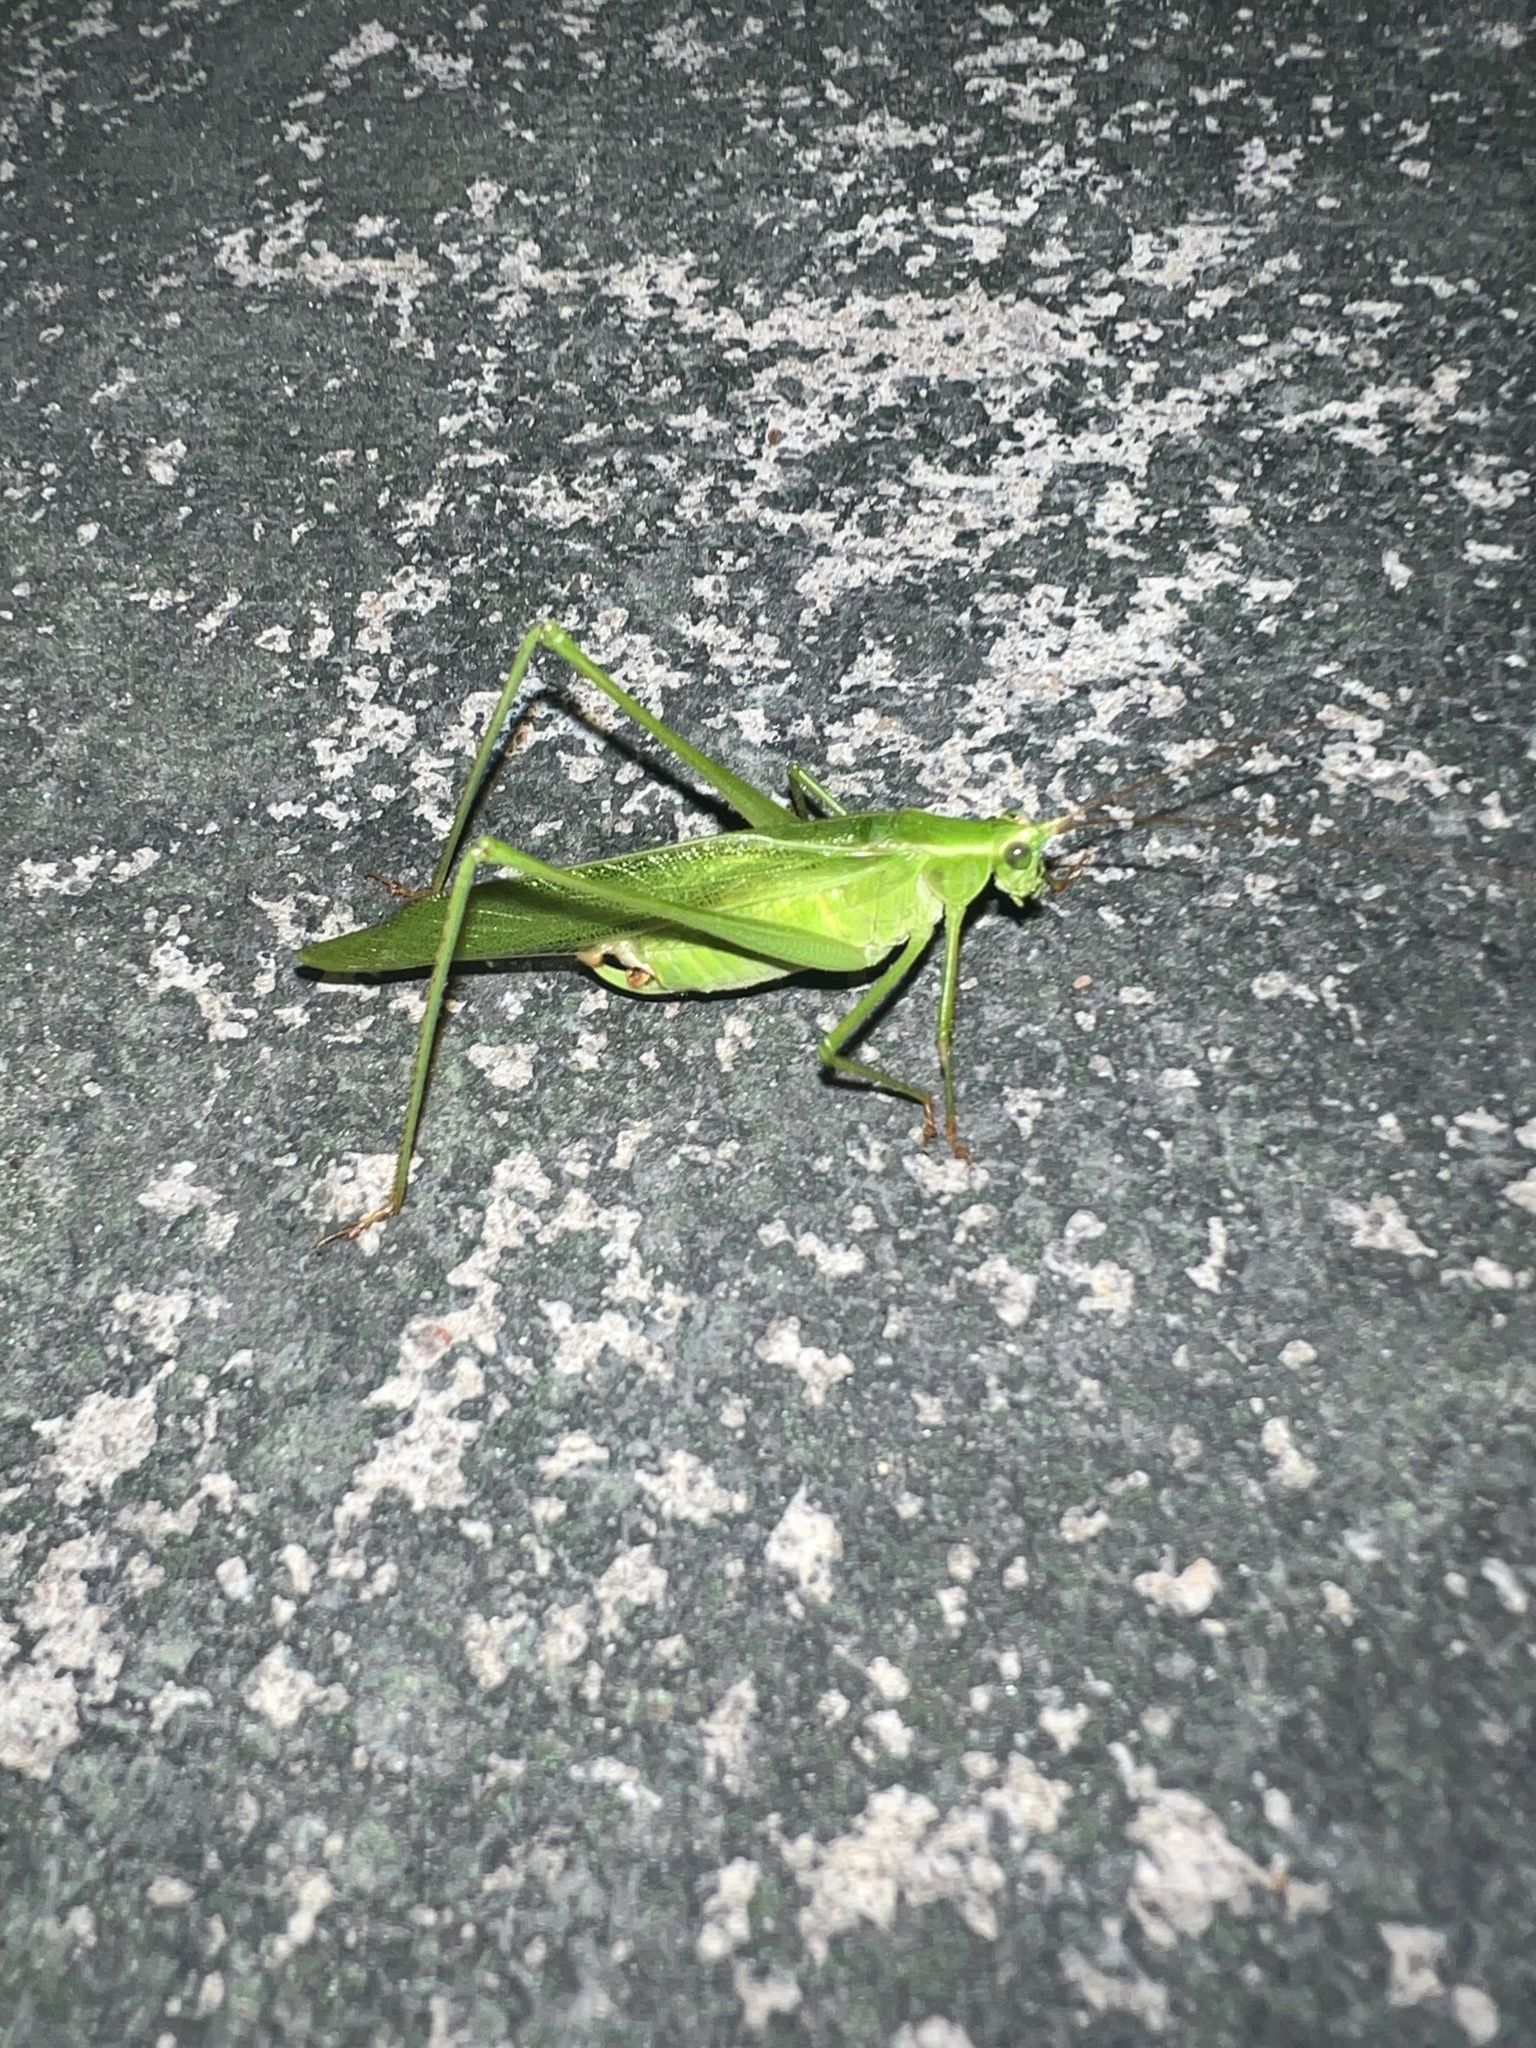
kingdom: Animalia
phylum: Arthropoda
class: Insecta
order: Orthoptera
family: Tettigoniidae
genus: Scudderia
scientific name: Scudderia furcata
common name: Fork-tailed bush katydid
